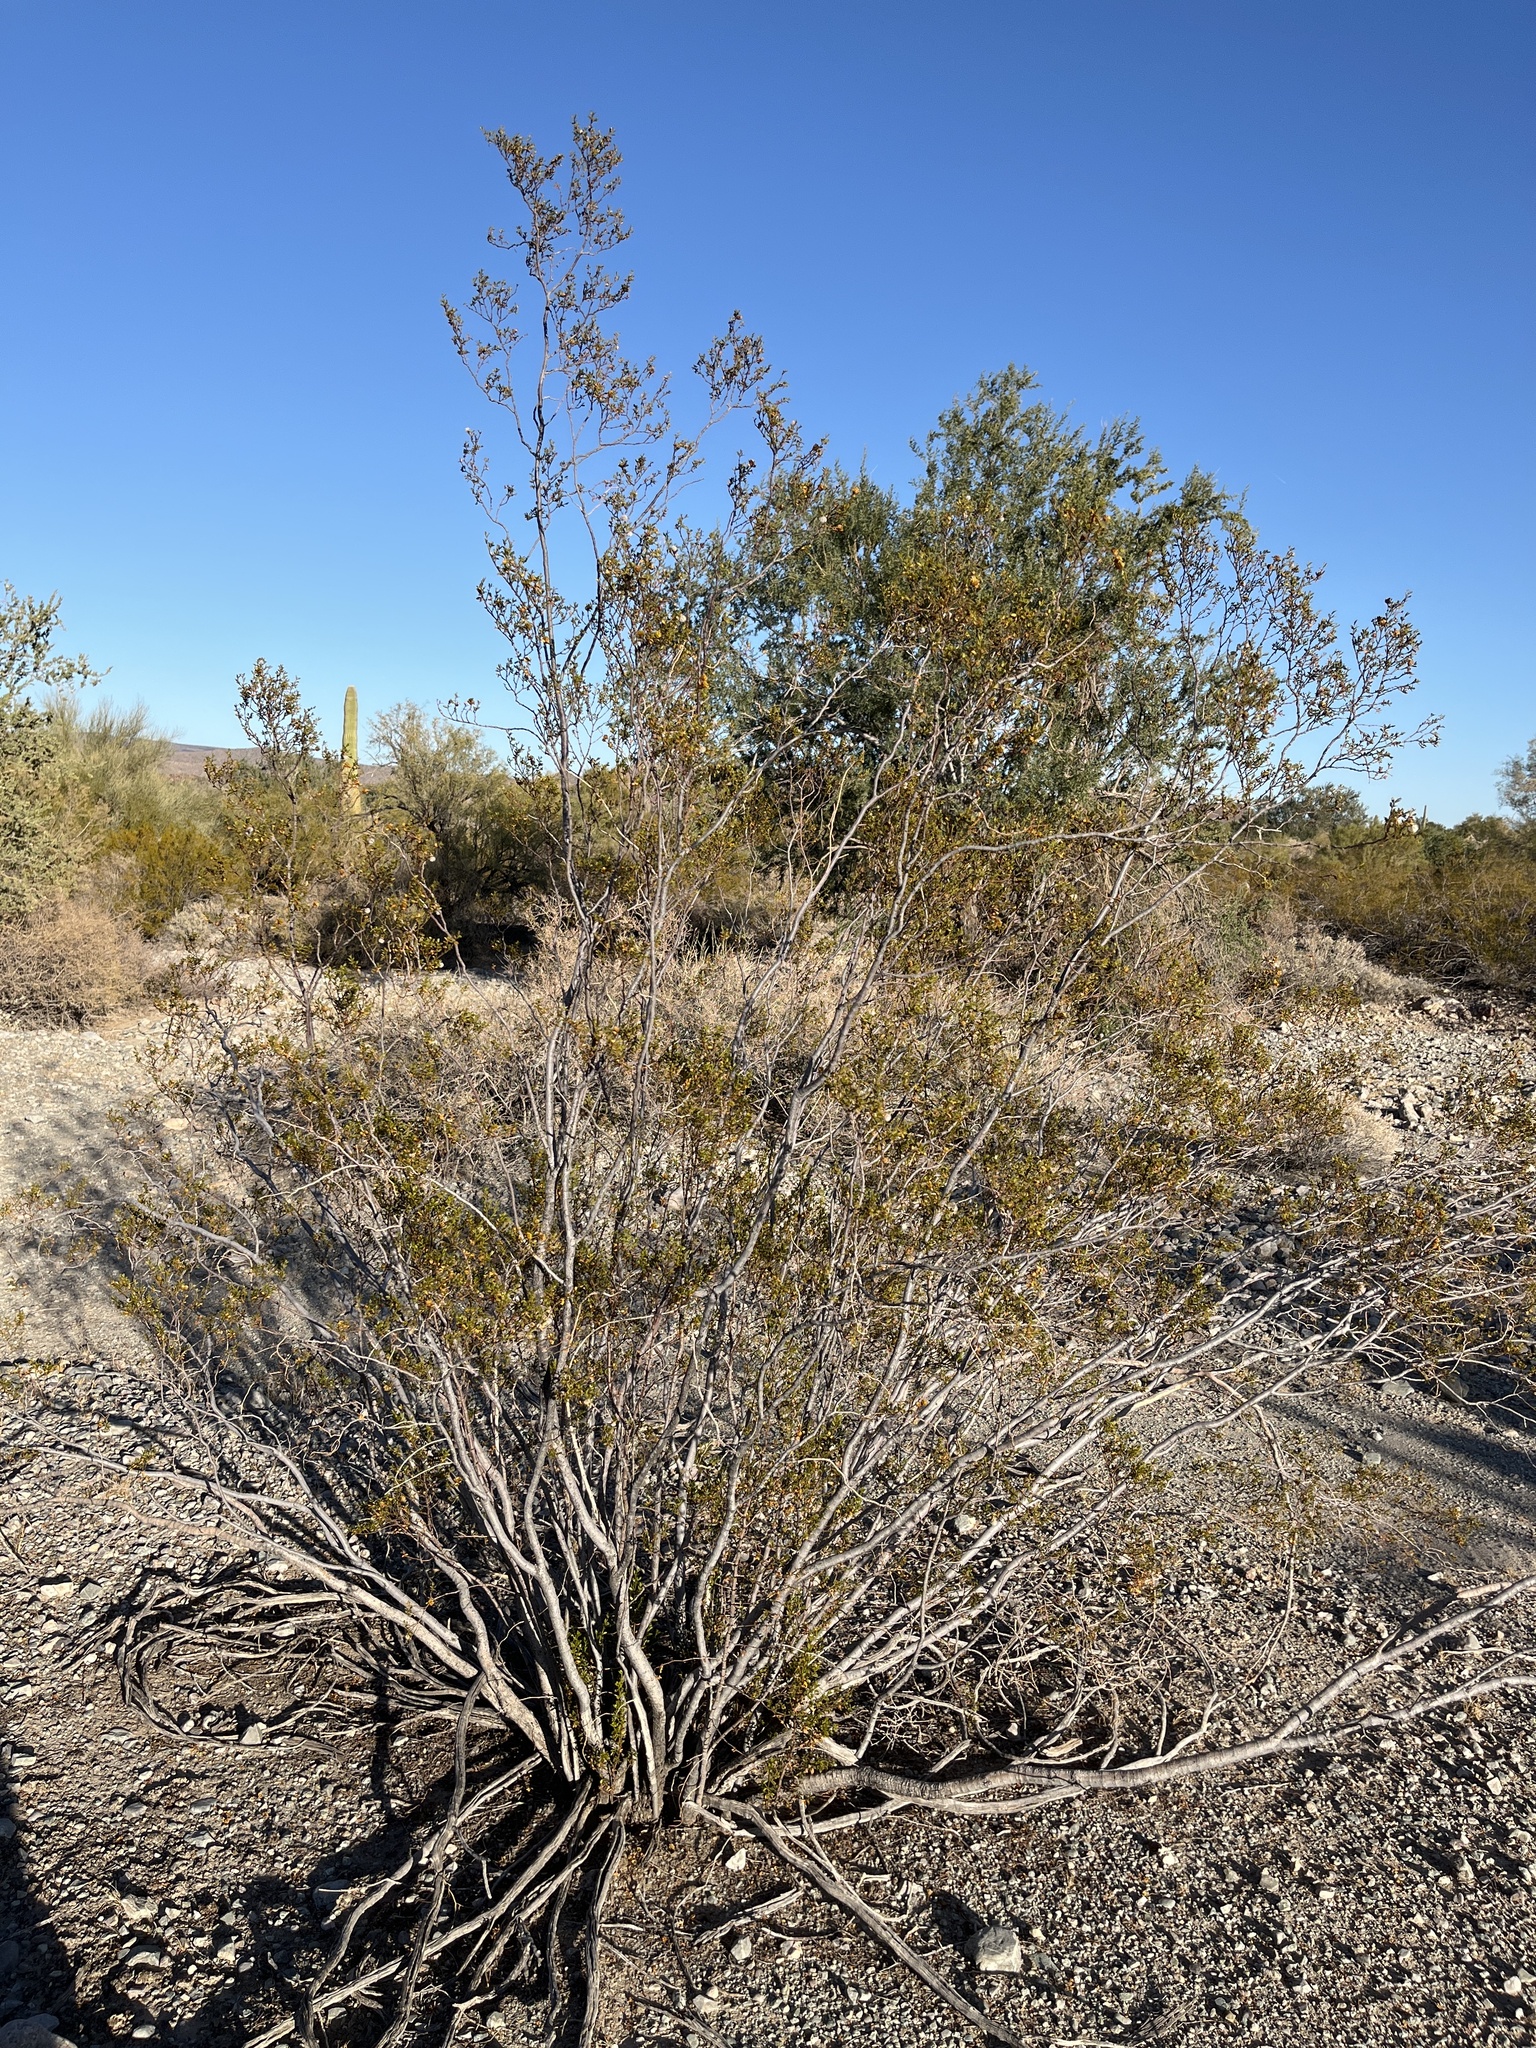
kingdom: Plantae
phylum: Tracheophyta
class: Magnoliopsida
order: Zygophyllales
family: Zygophyllaceae
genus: Larrea
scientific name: Larrea tridentata
